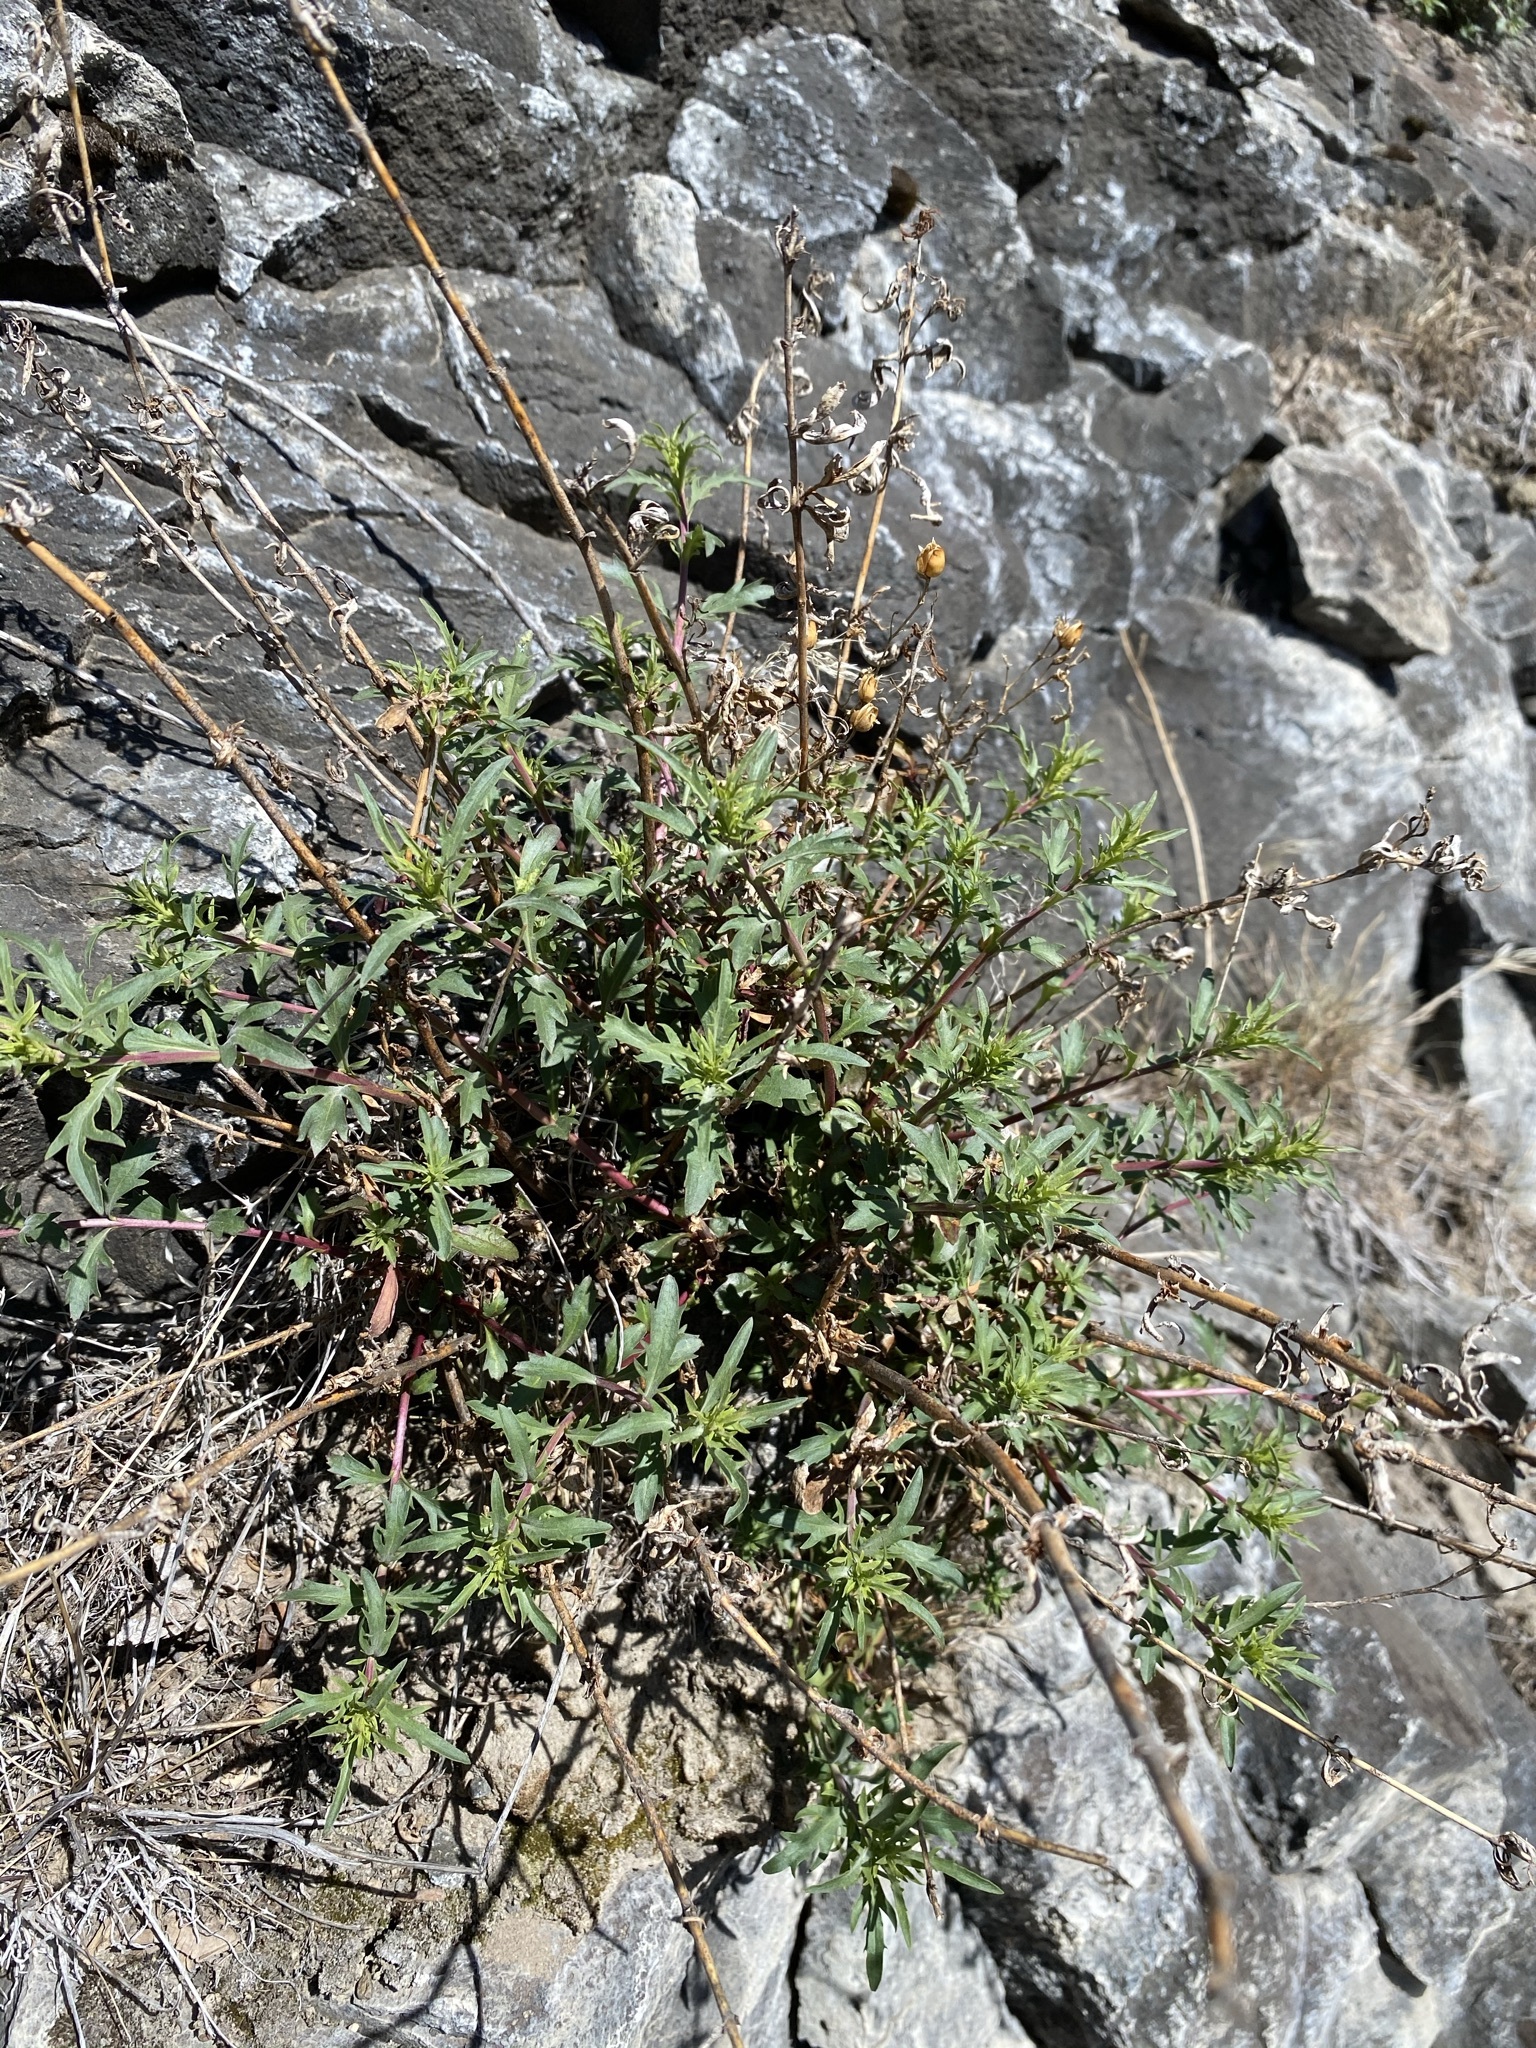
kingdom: Plantae
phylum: Tracheophyta
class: Magnoliopsida
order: Lamiales
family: Plantaginaceae
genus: Penstemon
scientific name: Penstemon richardsonii
